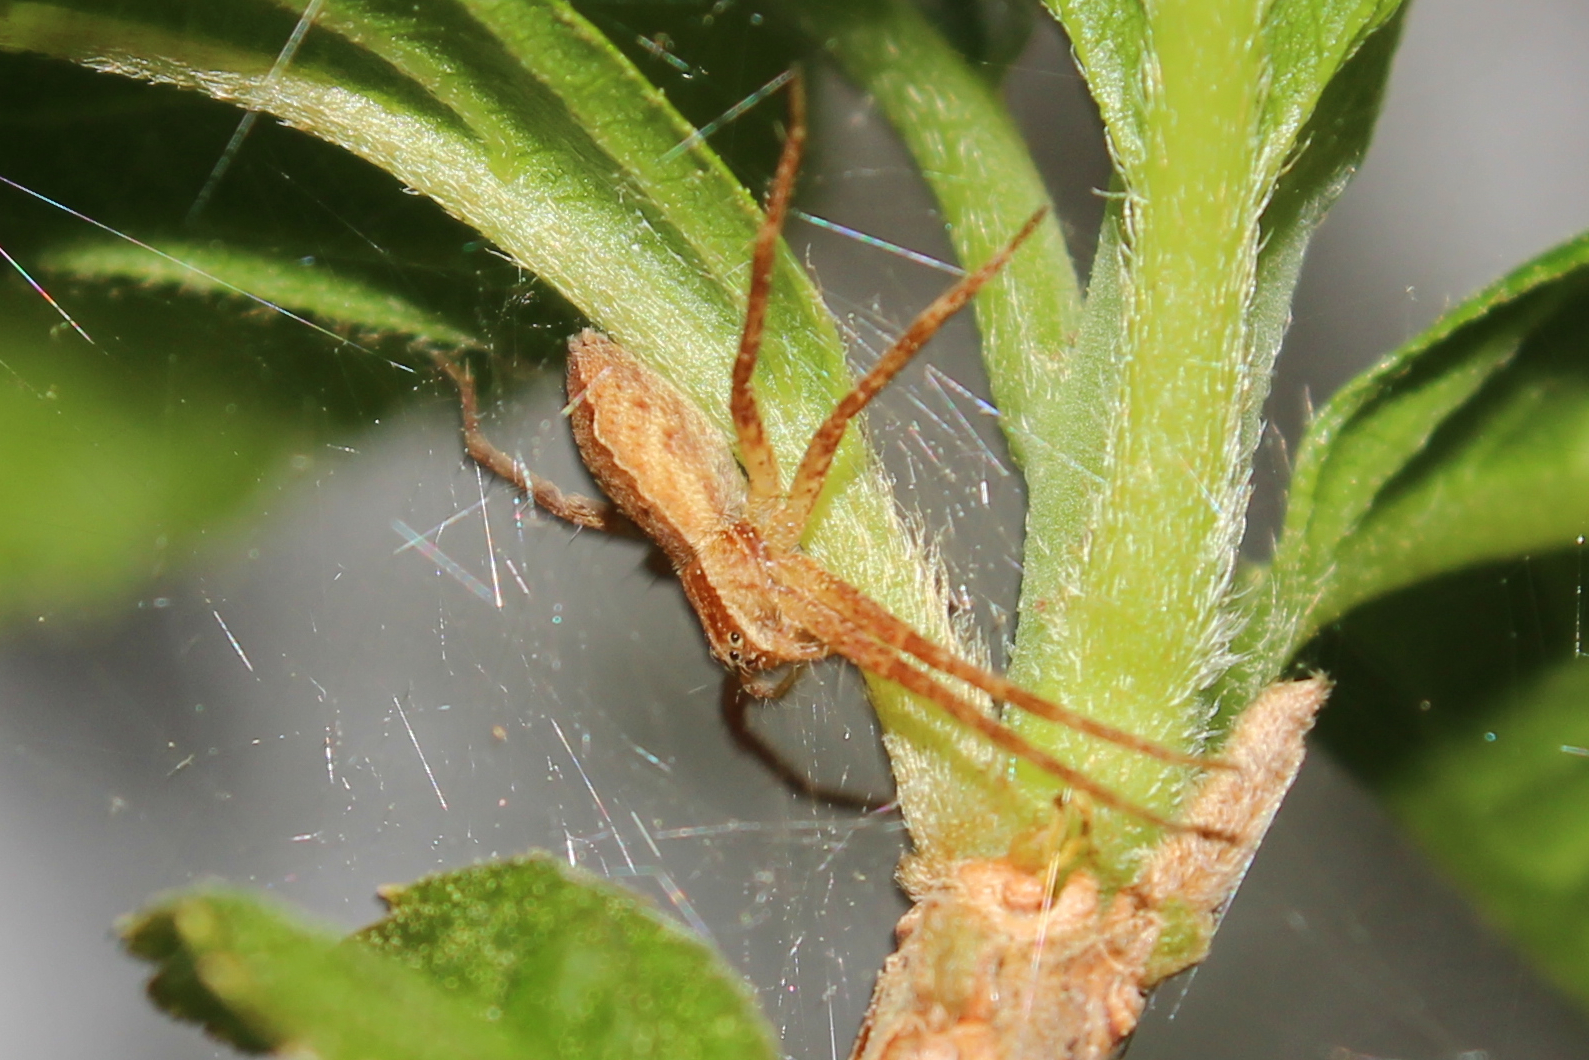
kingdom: Animalia
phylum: Arthropoda
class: Arachnida
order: Araneae
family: Pisauridae
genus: Pisaurina
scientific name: Pisaurina mira
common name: American nursery web spider
